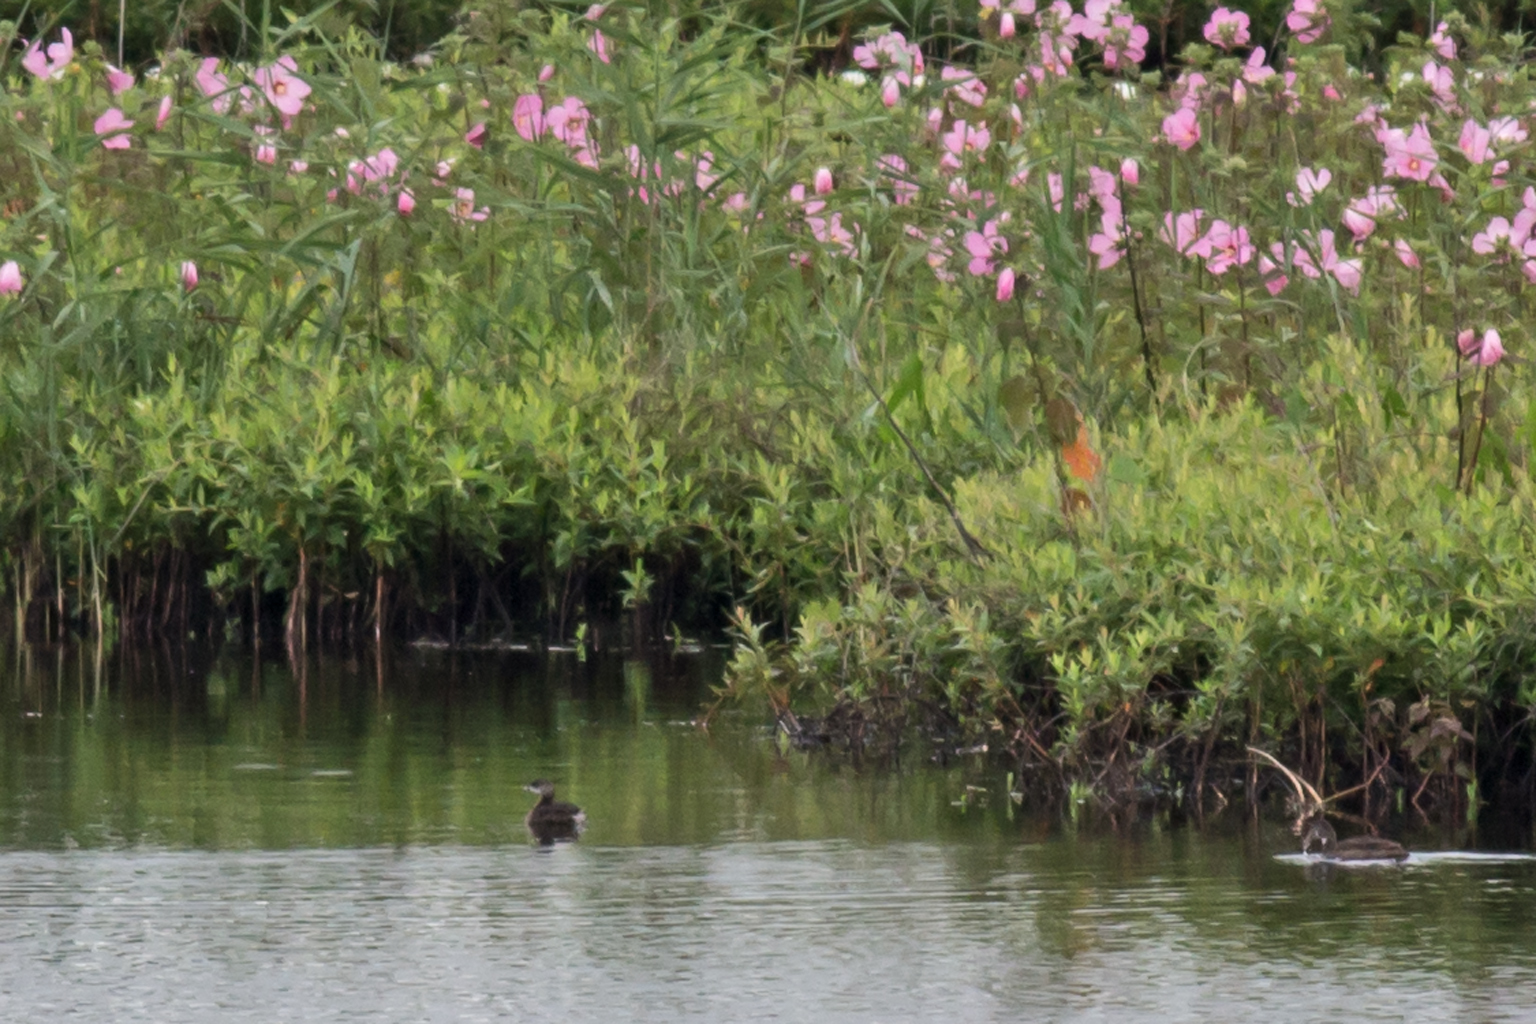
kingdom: Animalia
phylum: Chordata
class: Aves
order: Podicipediformes
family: Podicipedidae
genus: Podilymbus
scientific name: Podilymbus podiceps
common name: Pied-billed grebe
